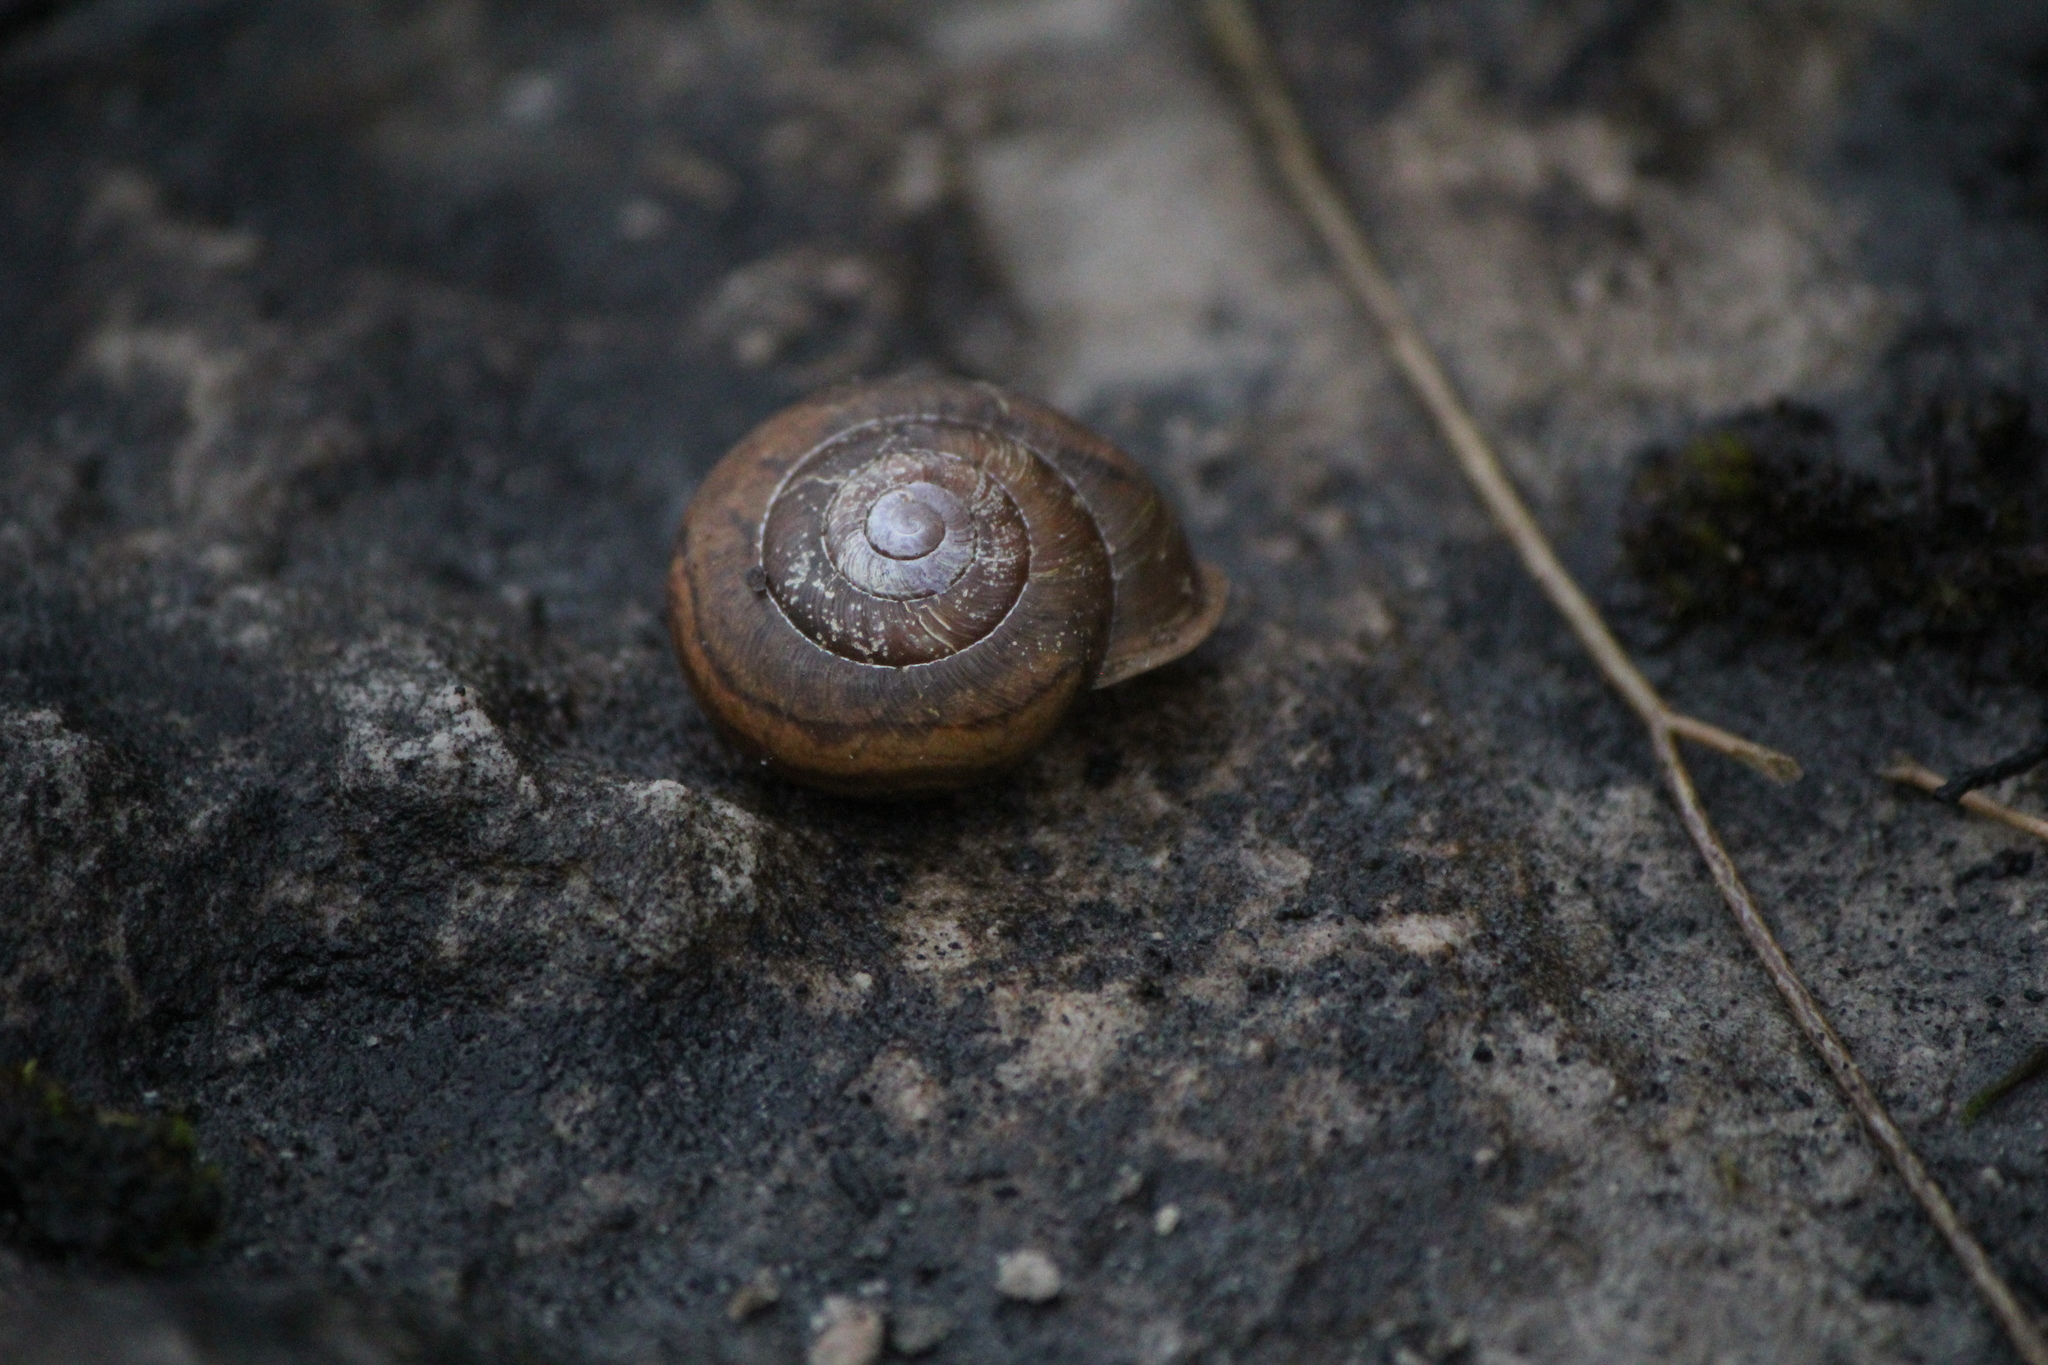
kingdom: Animalia
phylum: Mollusca
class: Gastropoda
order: Stylommatophora
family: Polygyridae
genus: Neohelix
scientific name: Neohelix albolabris
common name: Eastern whitelip
